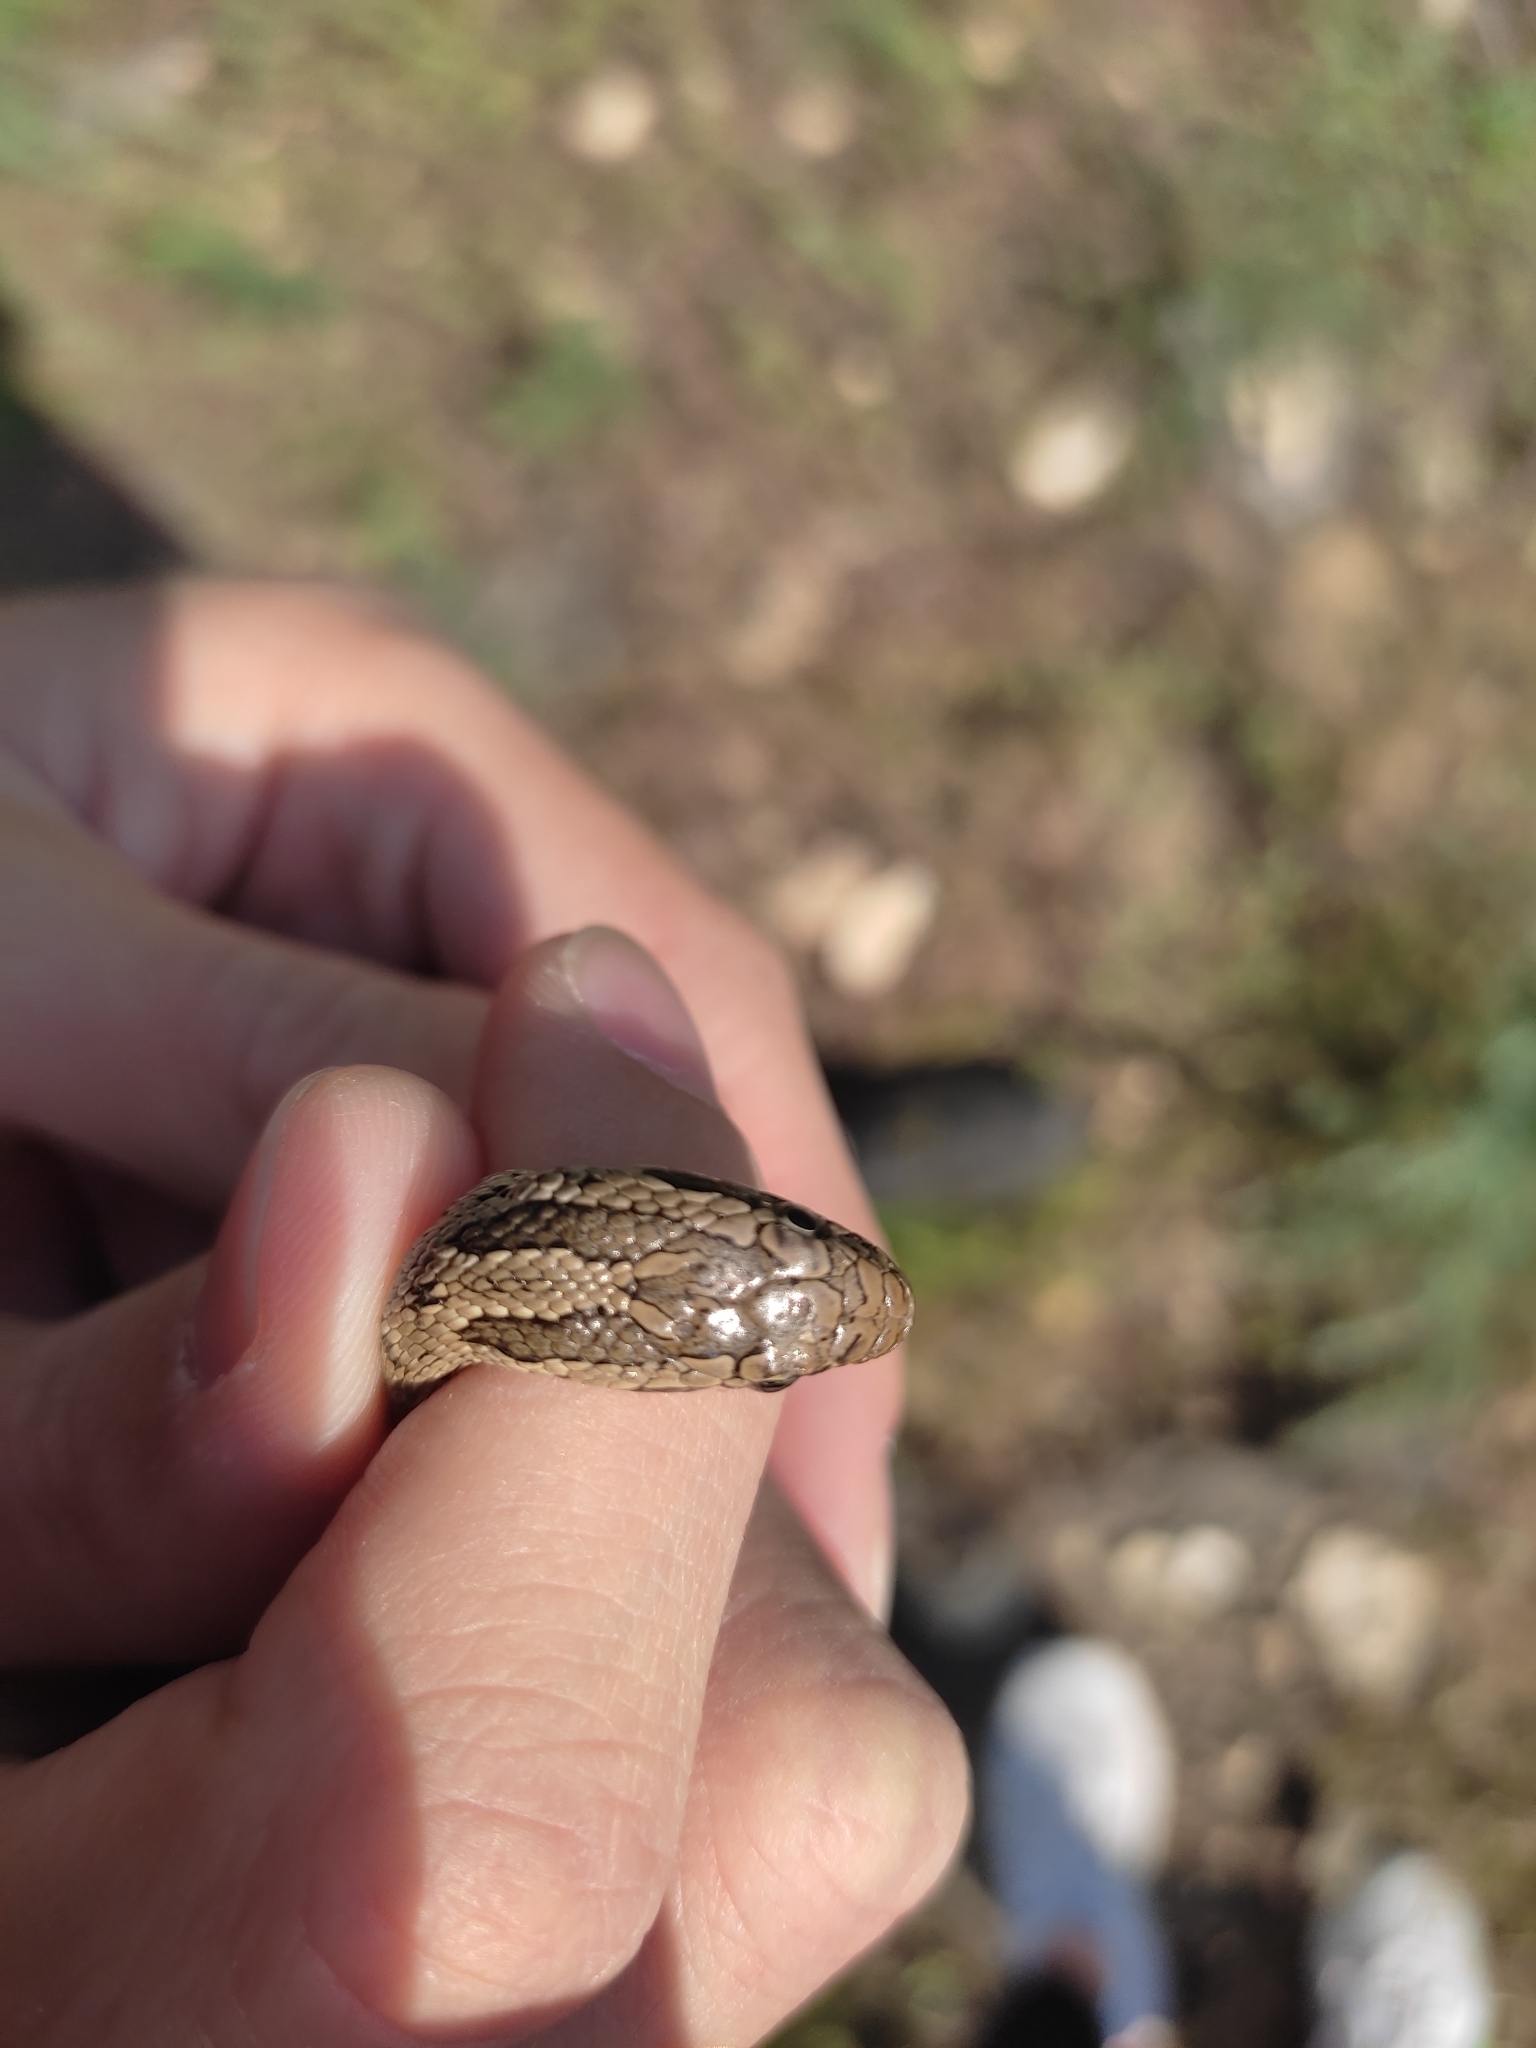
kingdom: Animalia
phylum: Chordata
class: Squamata
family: Colubridae
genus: Elaphe
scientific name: Elaphe dione
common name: Dione ratsnake
